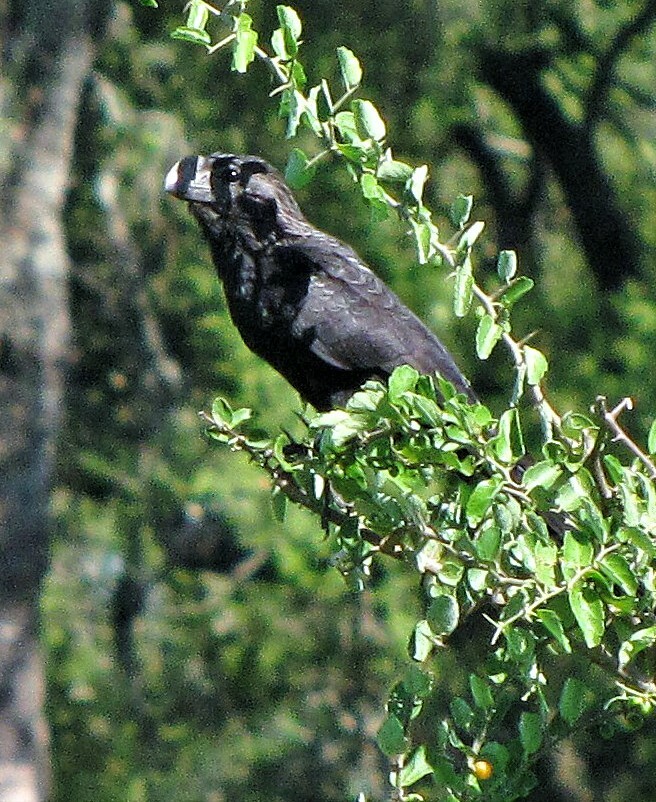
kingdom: Animalia
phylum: Chordata
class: Aves
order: Cuculiformes
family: Cuculidae
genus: Crotophaga
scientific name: Crotophaga ani
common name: Smooth-billed ani
